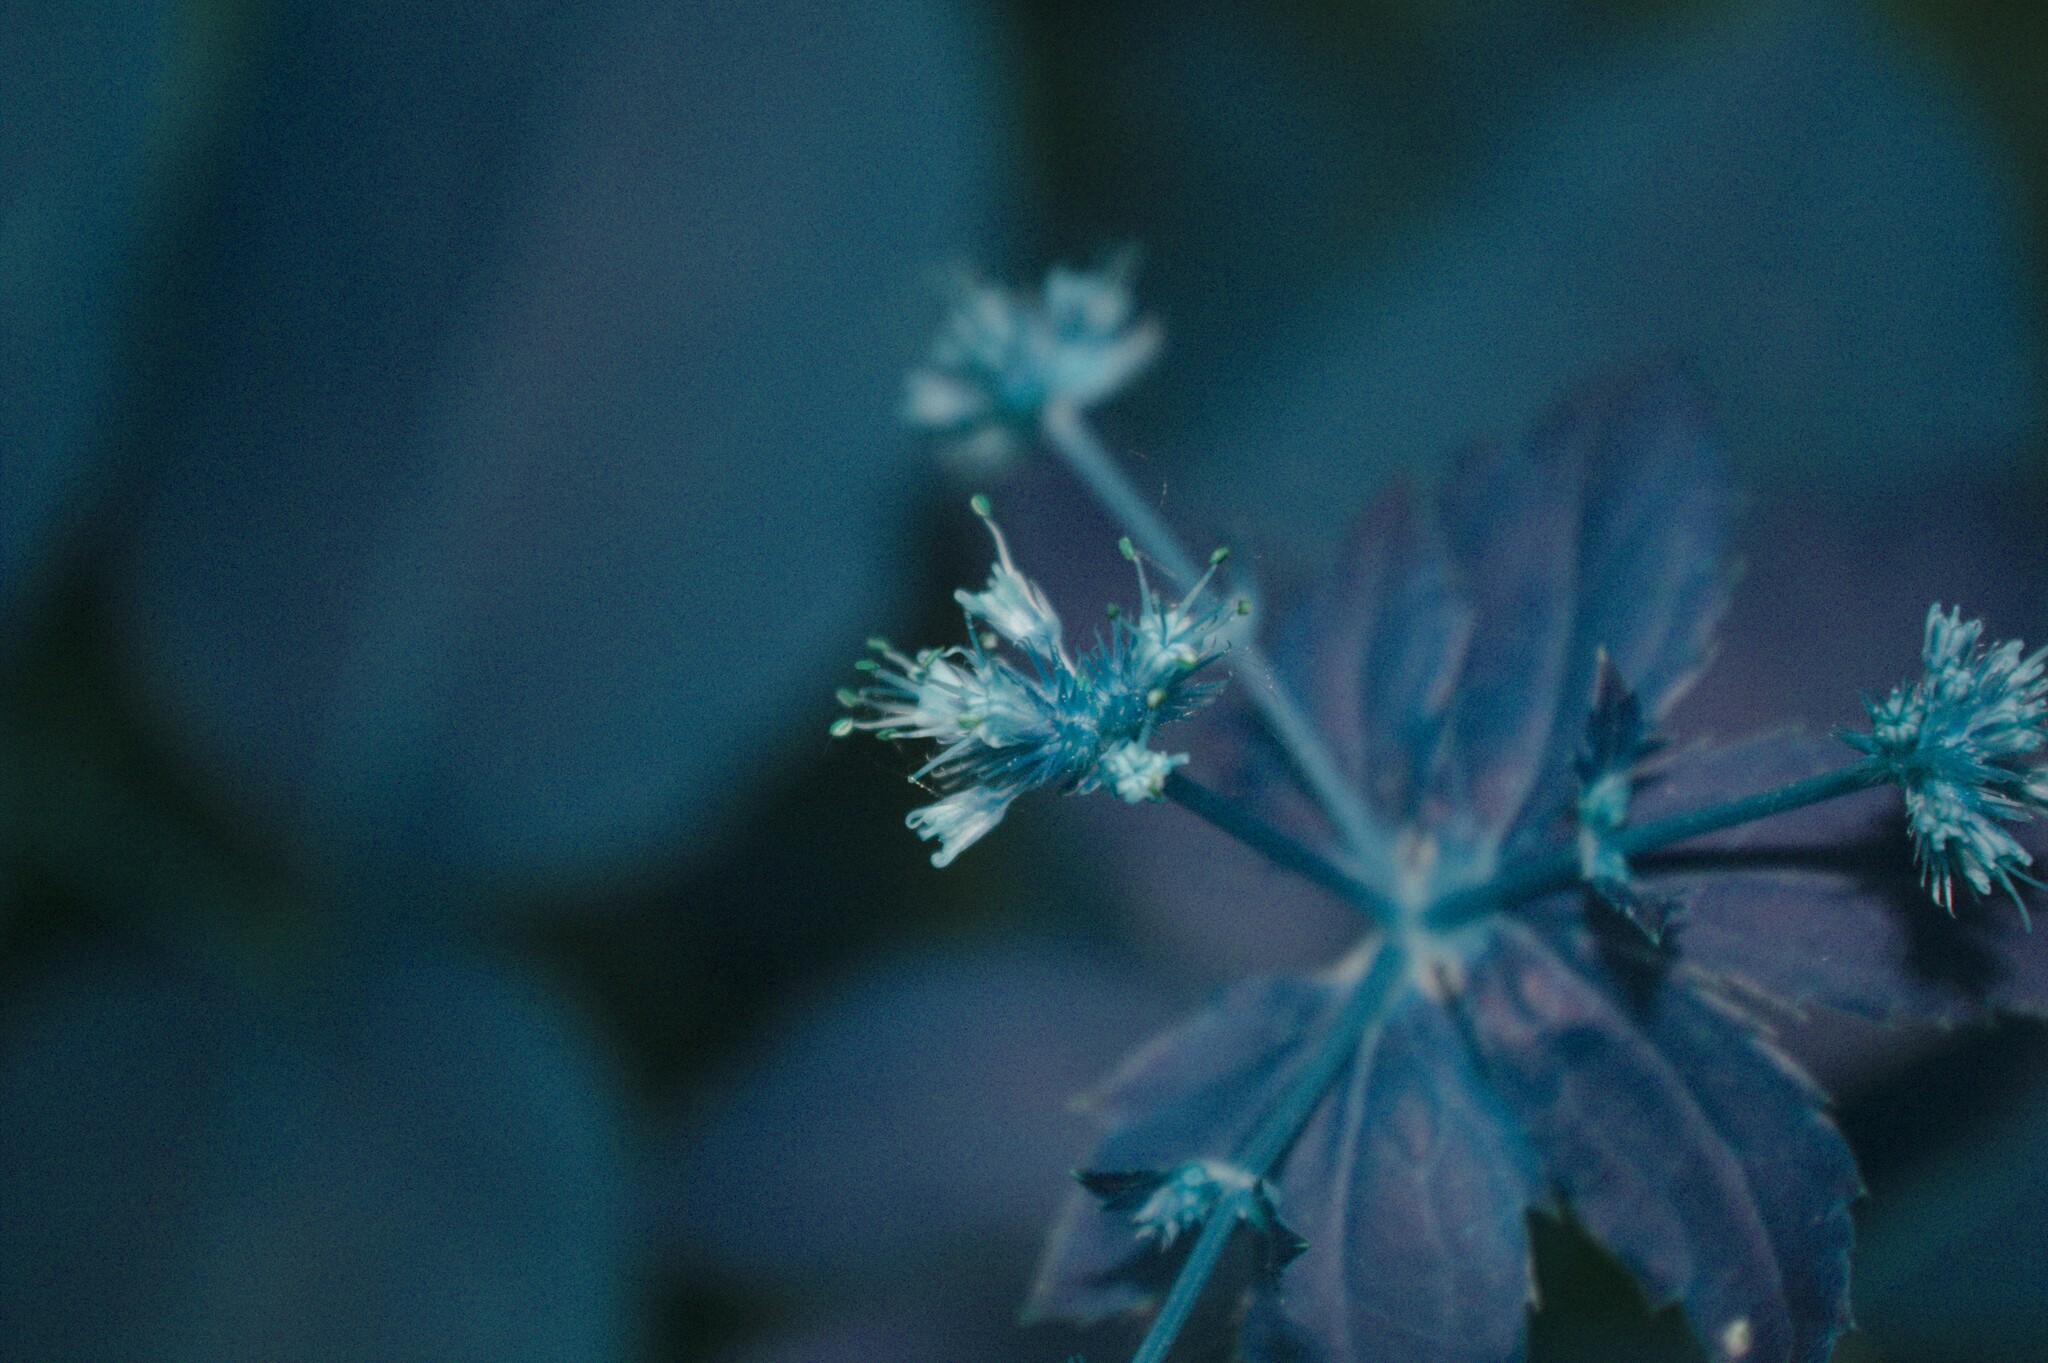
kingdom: Plantae
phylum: Tracheophyta
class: Magnoliopsida
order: Apiales
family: Apiaceae
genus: Sanicula
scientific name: Sanicula marilandica
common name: Black snakeroot
